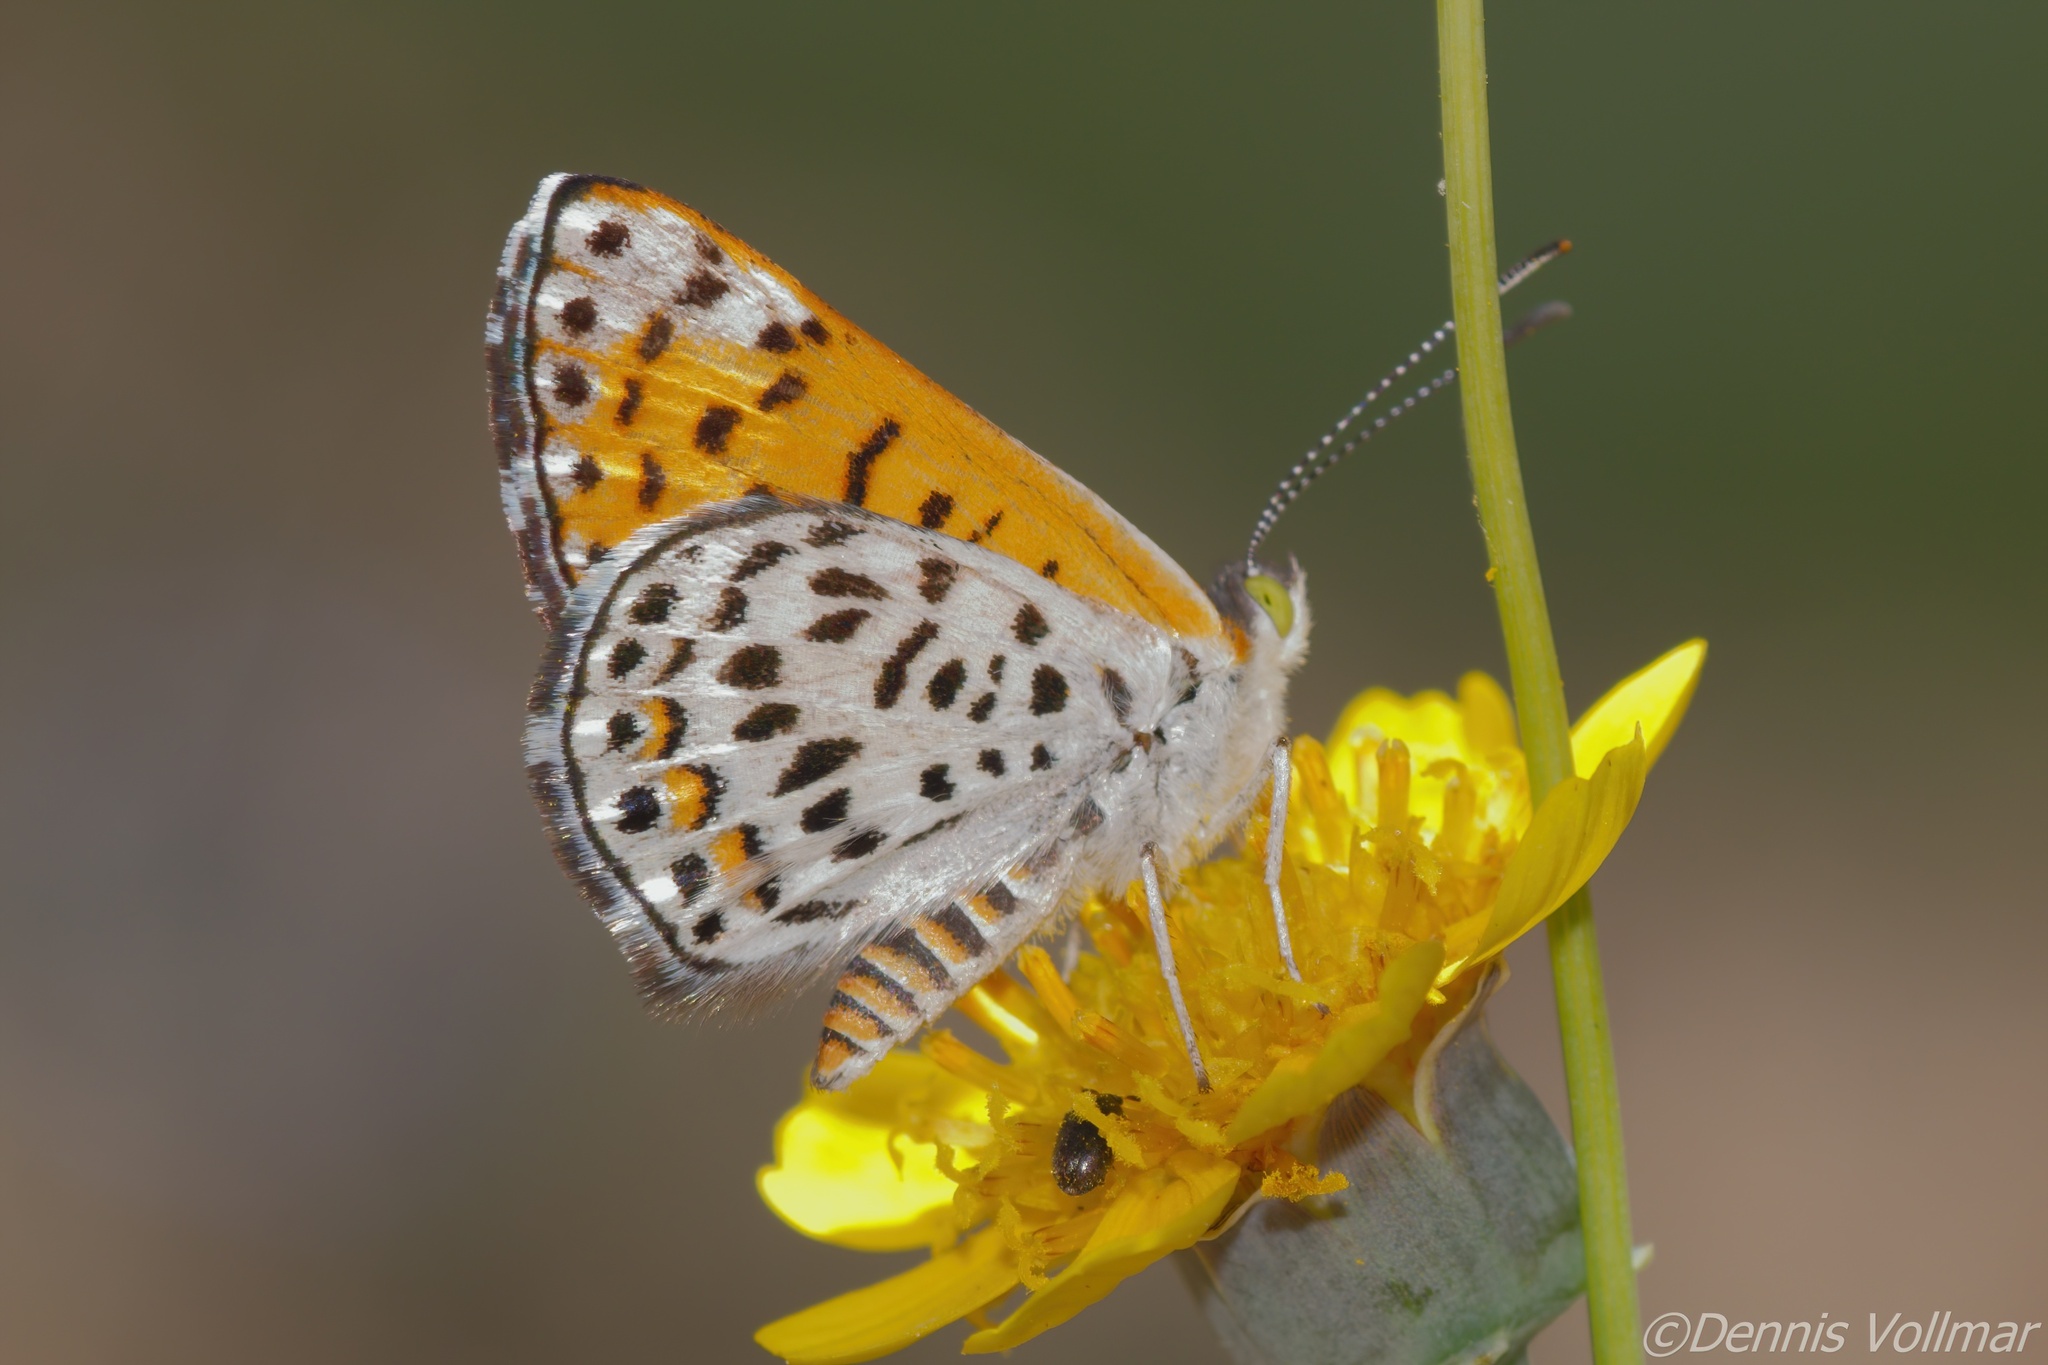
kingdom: Animalia
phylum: Arthropoda
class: Insecta
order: Lepidoptera
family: Riodinidae
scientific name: Riodinidae
